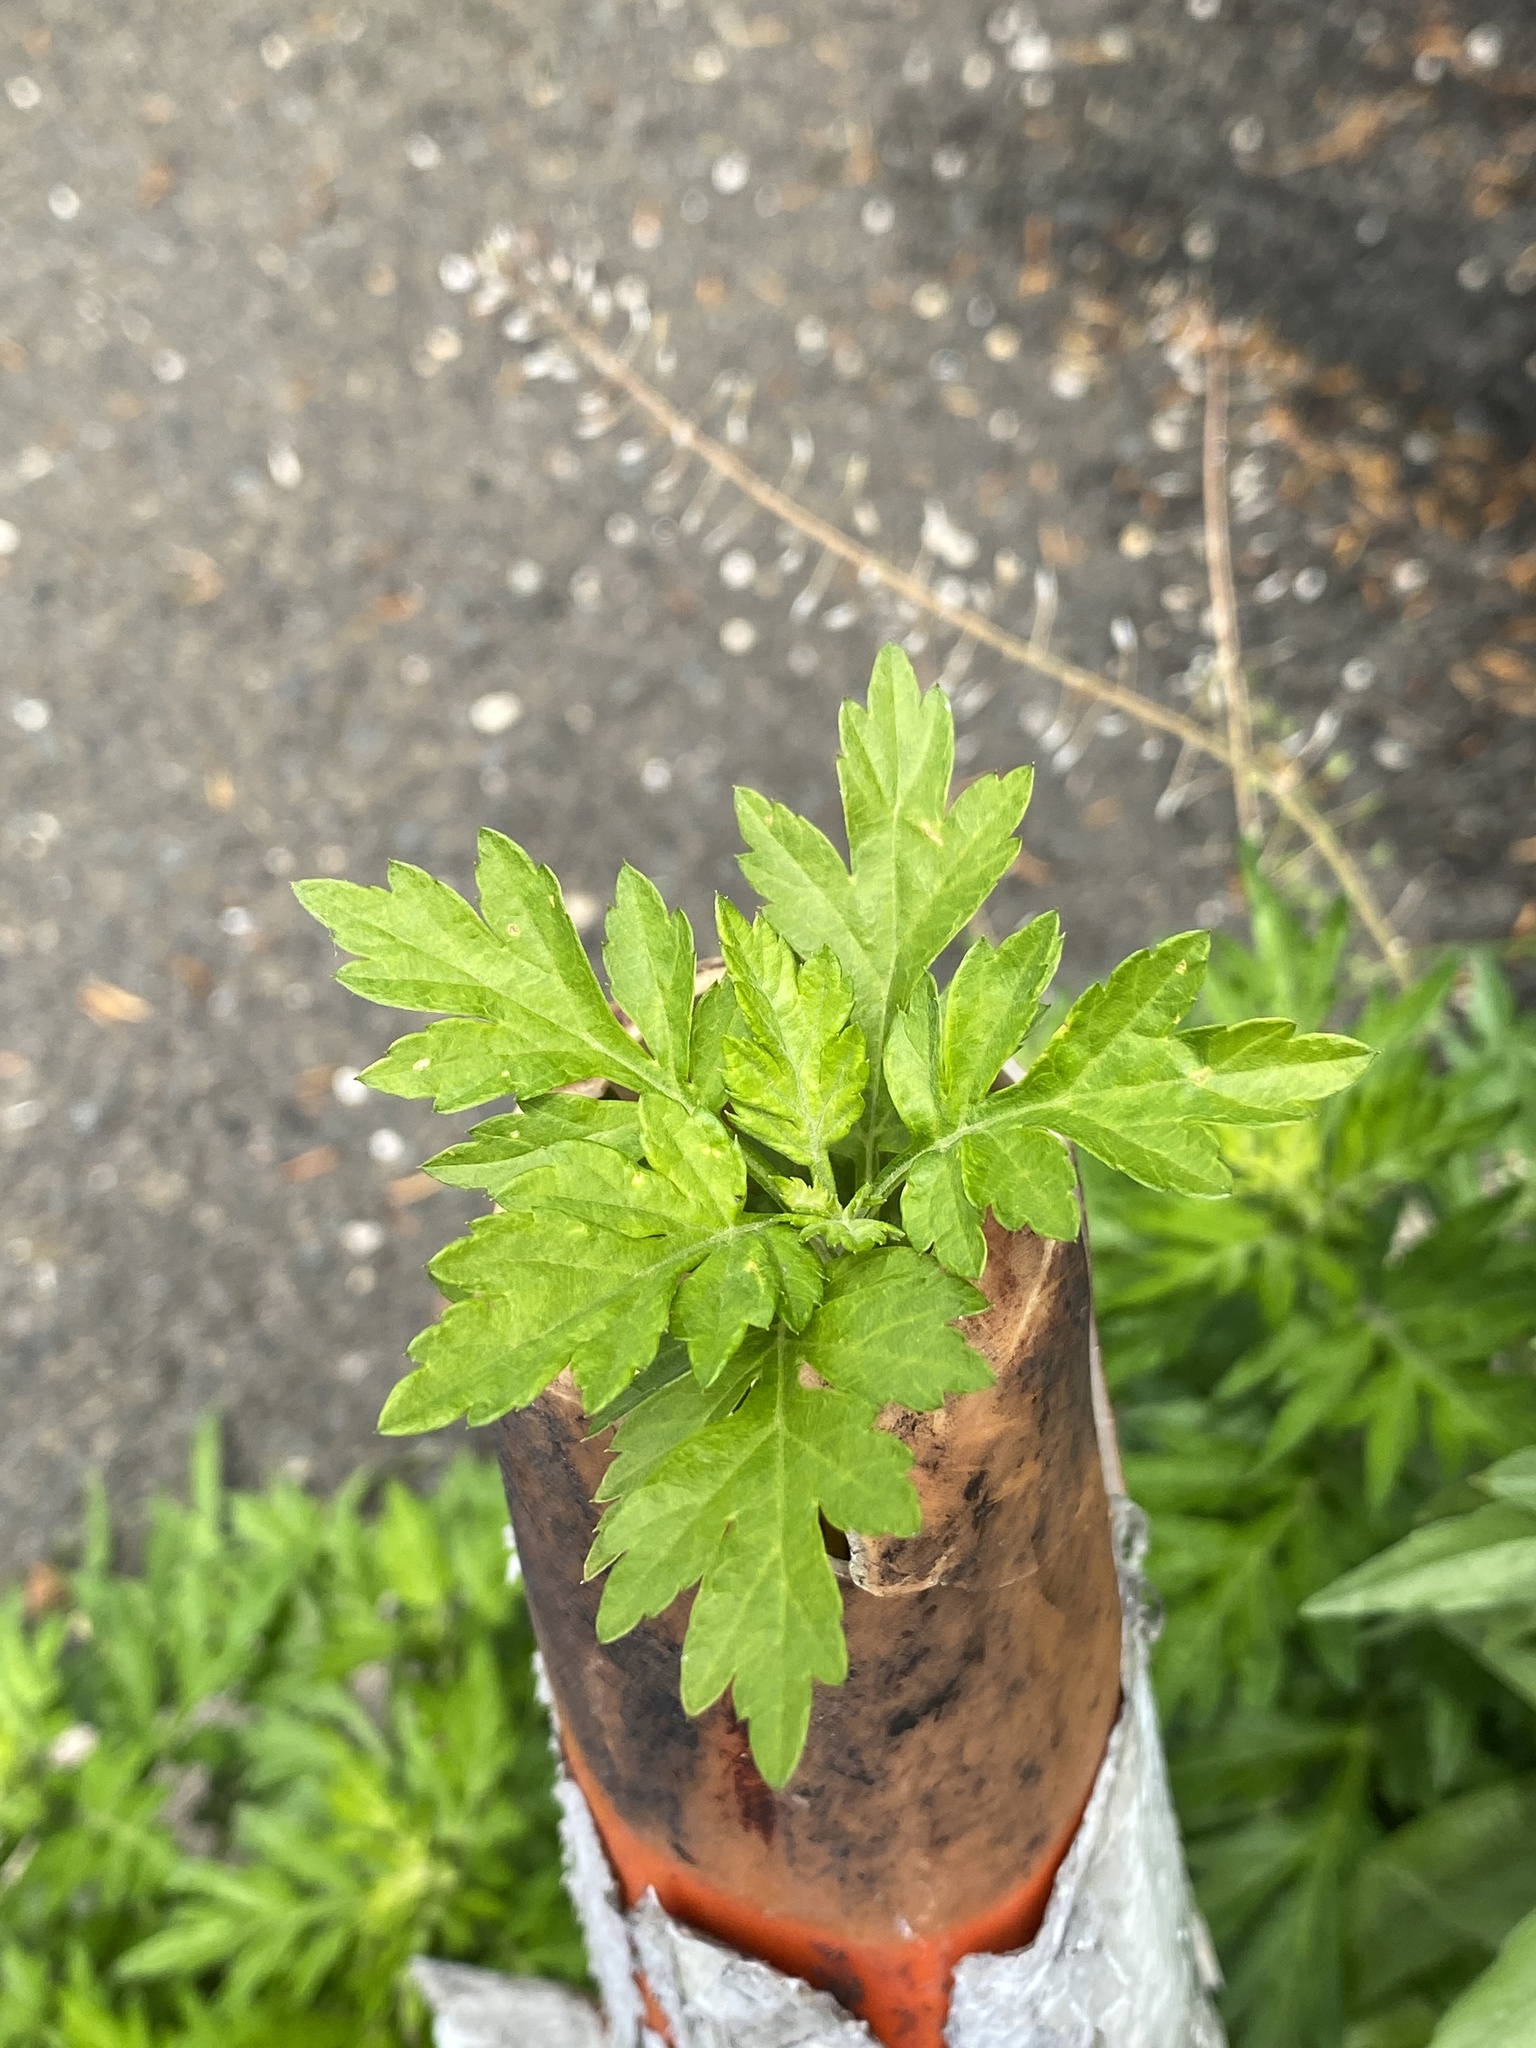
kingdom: Plantae
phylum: Tracheophyta
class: Magnoliopsida
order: Asterales
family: Asteraceae
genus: Artemisia
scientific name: Artemisia vulgaris
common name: Mugwort
